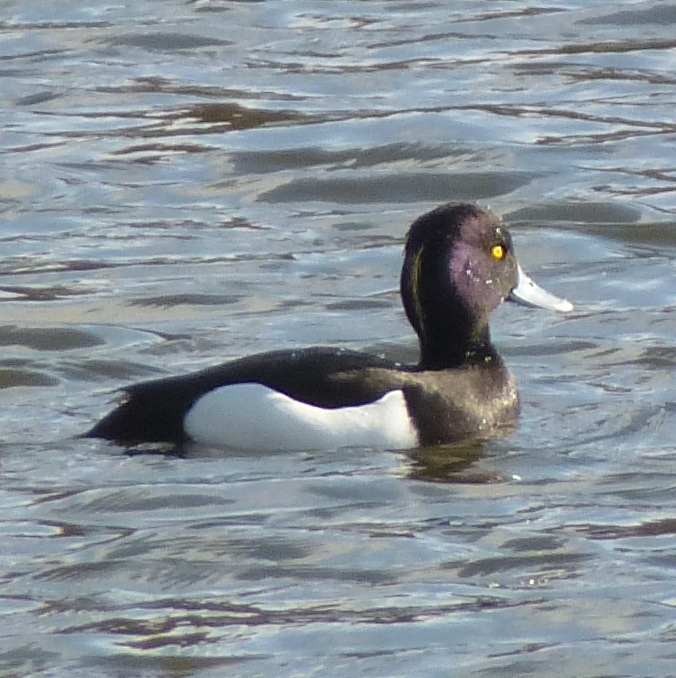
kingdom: Animalia
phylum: Chordata
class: Aves
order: Anseriformes
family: Anatidae
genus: Aythya
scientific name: Aythya fuligula
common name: Tufted duck
